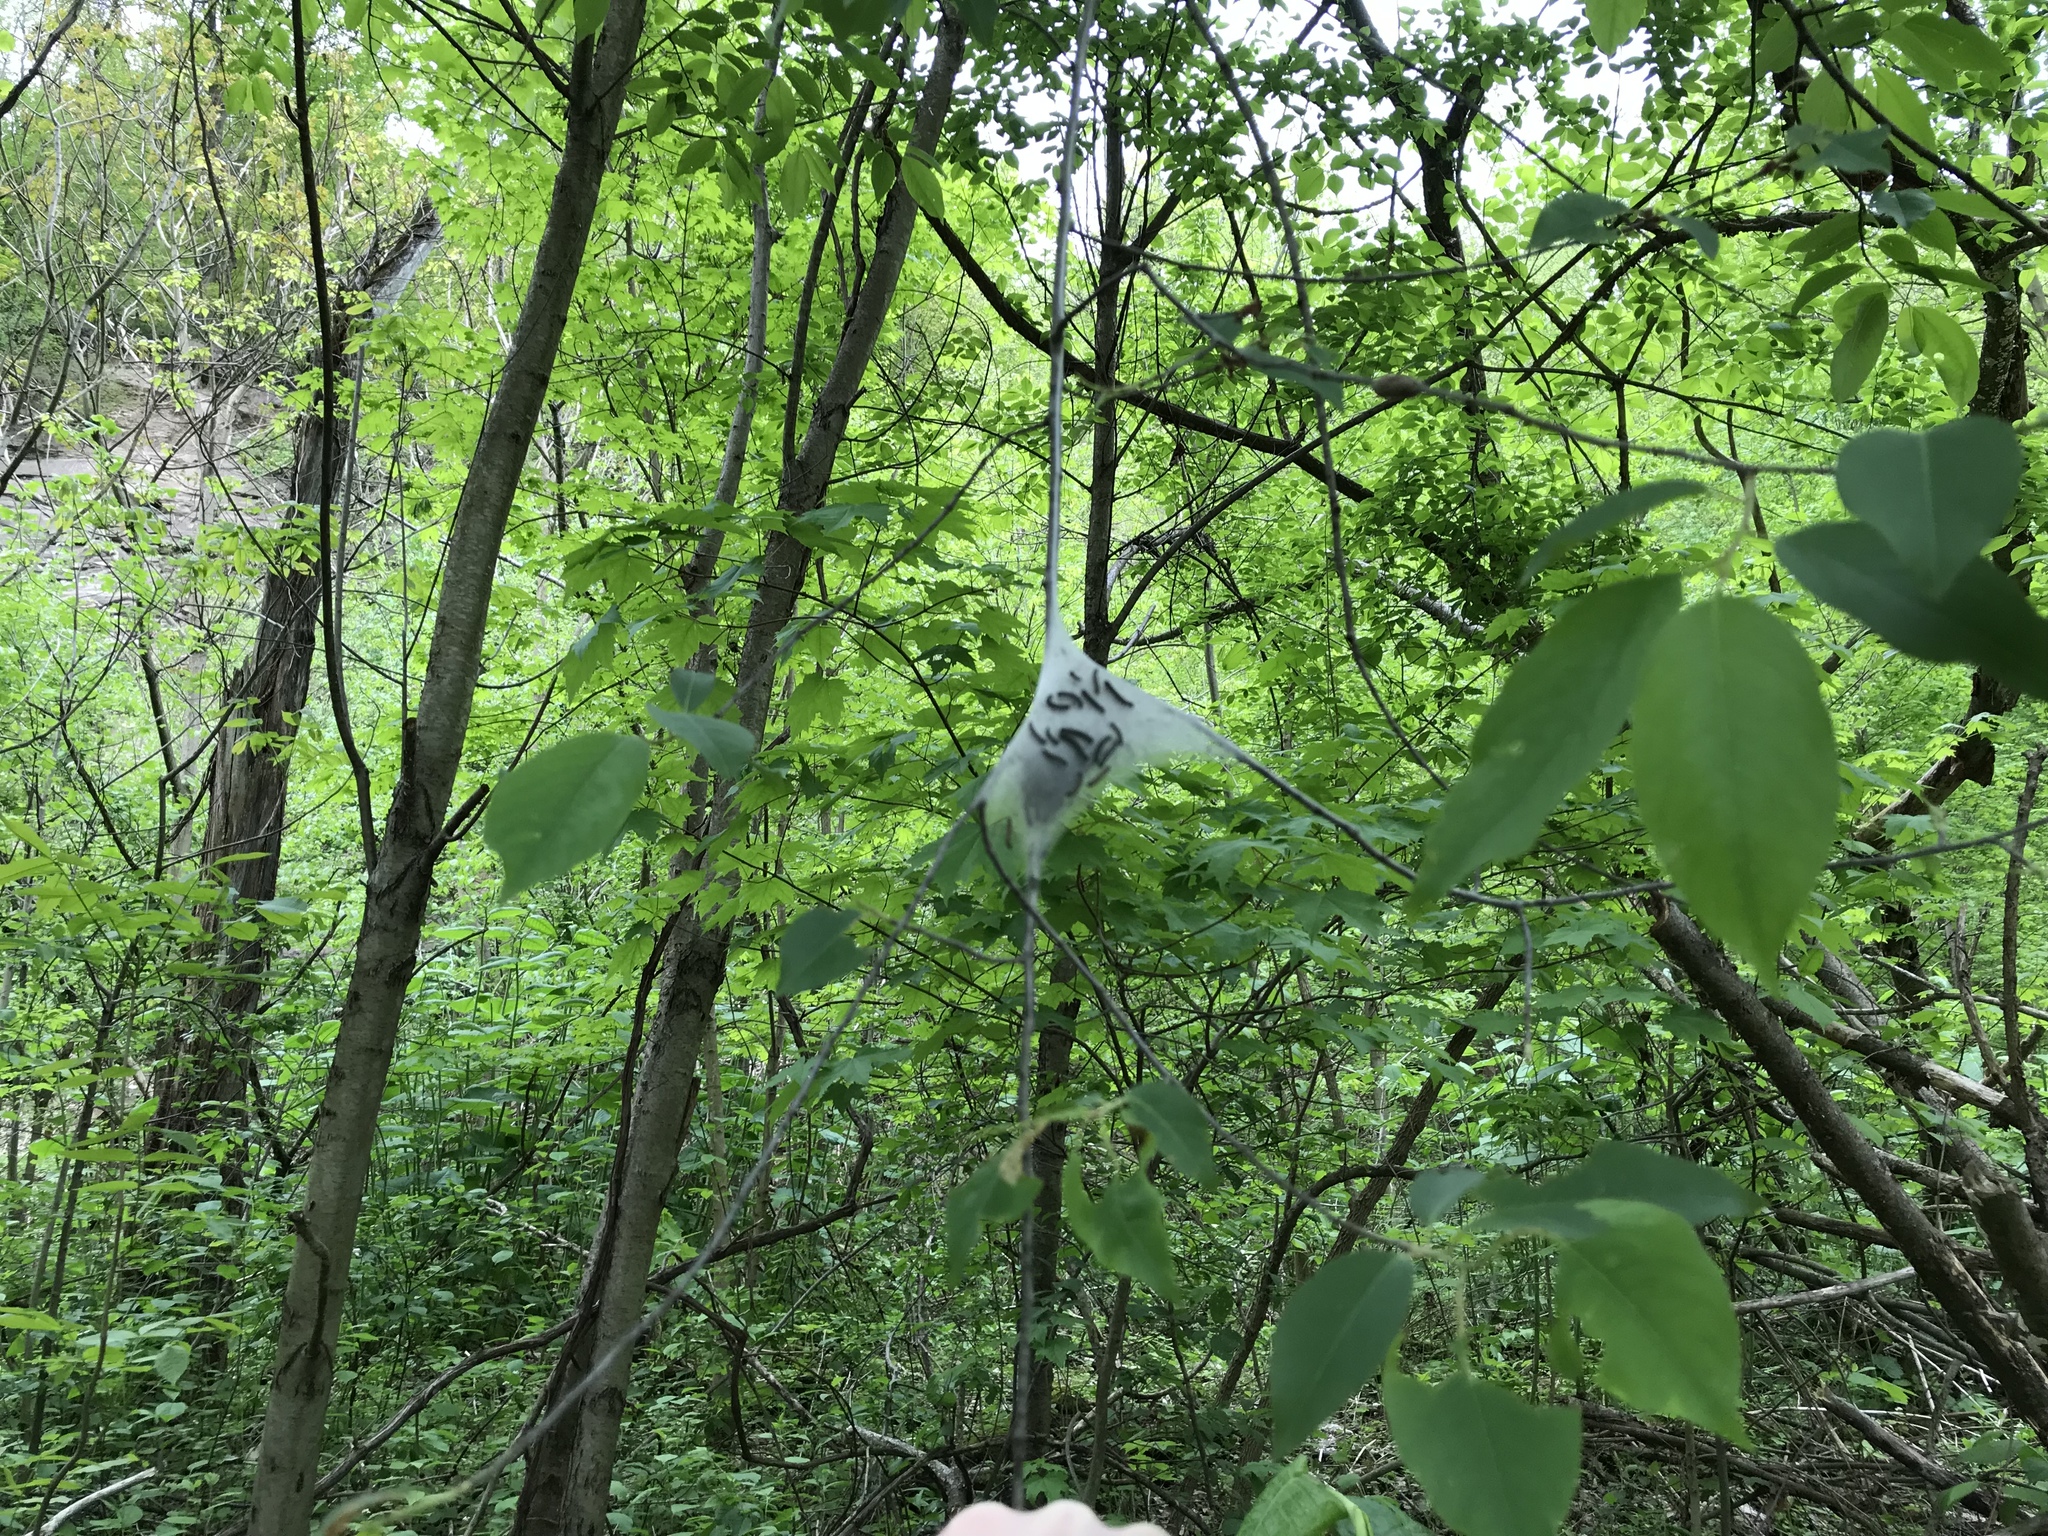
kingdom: Animalia
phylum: Arthropoda
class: Insecta
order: Lepidoptera
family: Lasiocampidae
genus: Malacosoma
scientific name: Malacosoma americana
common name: Eastern tent caterpillar moth
